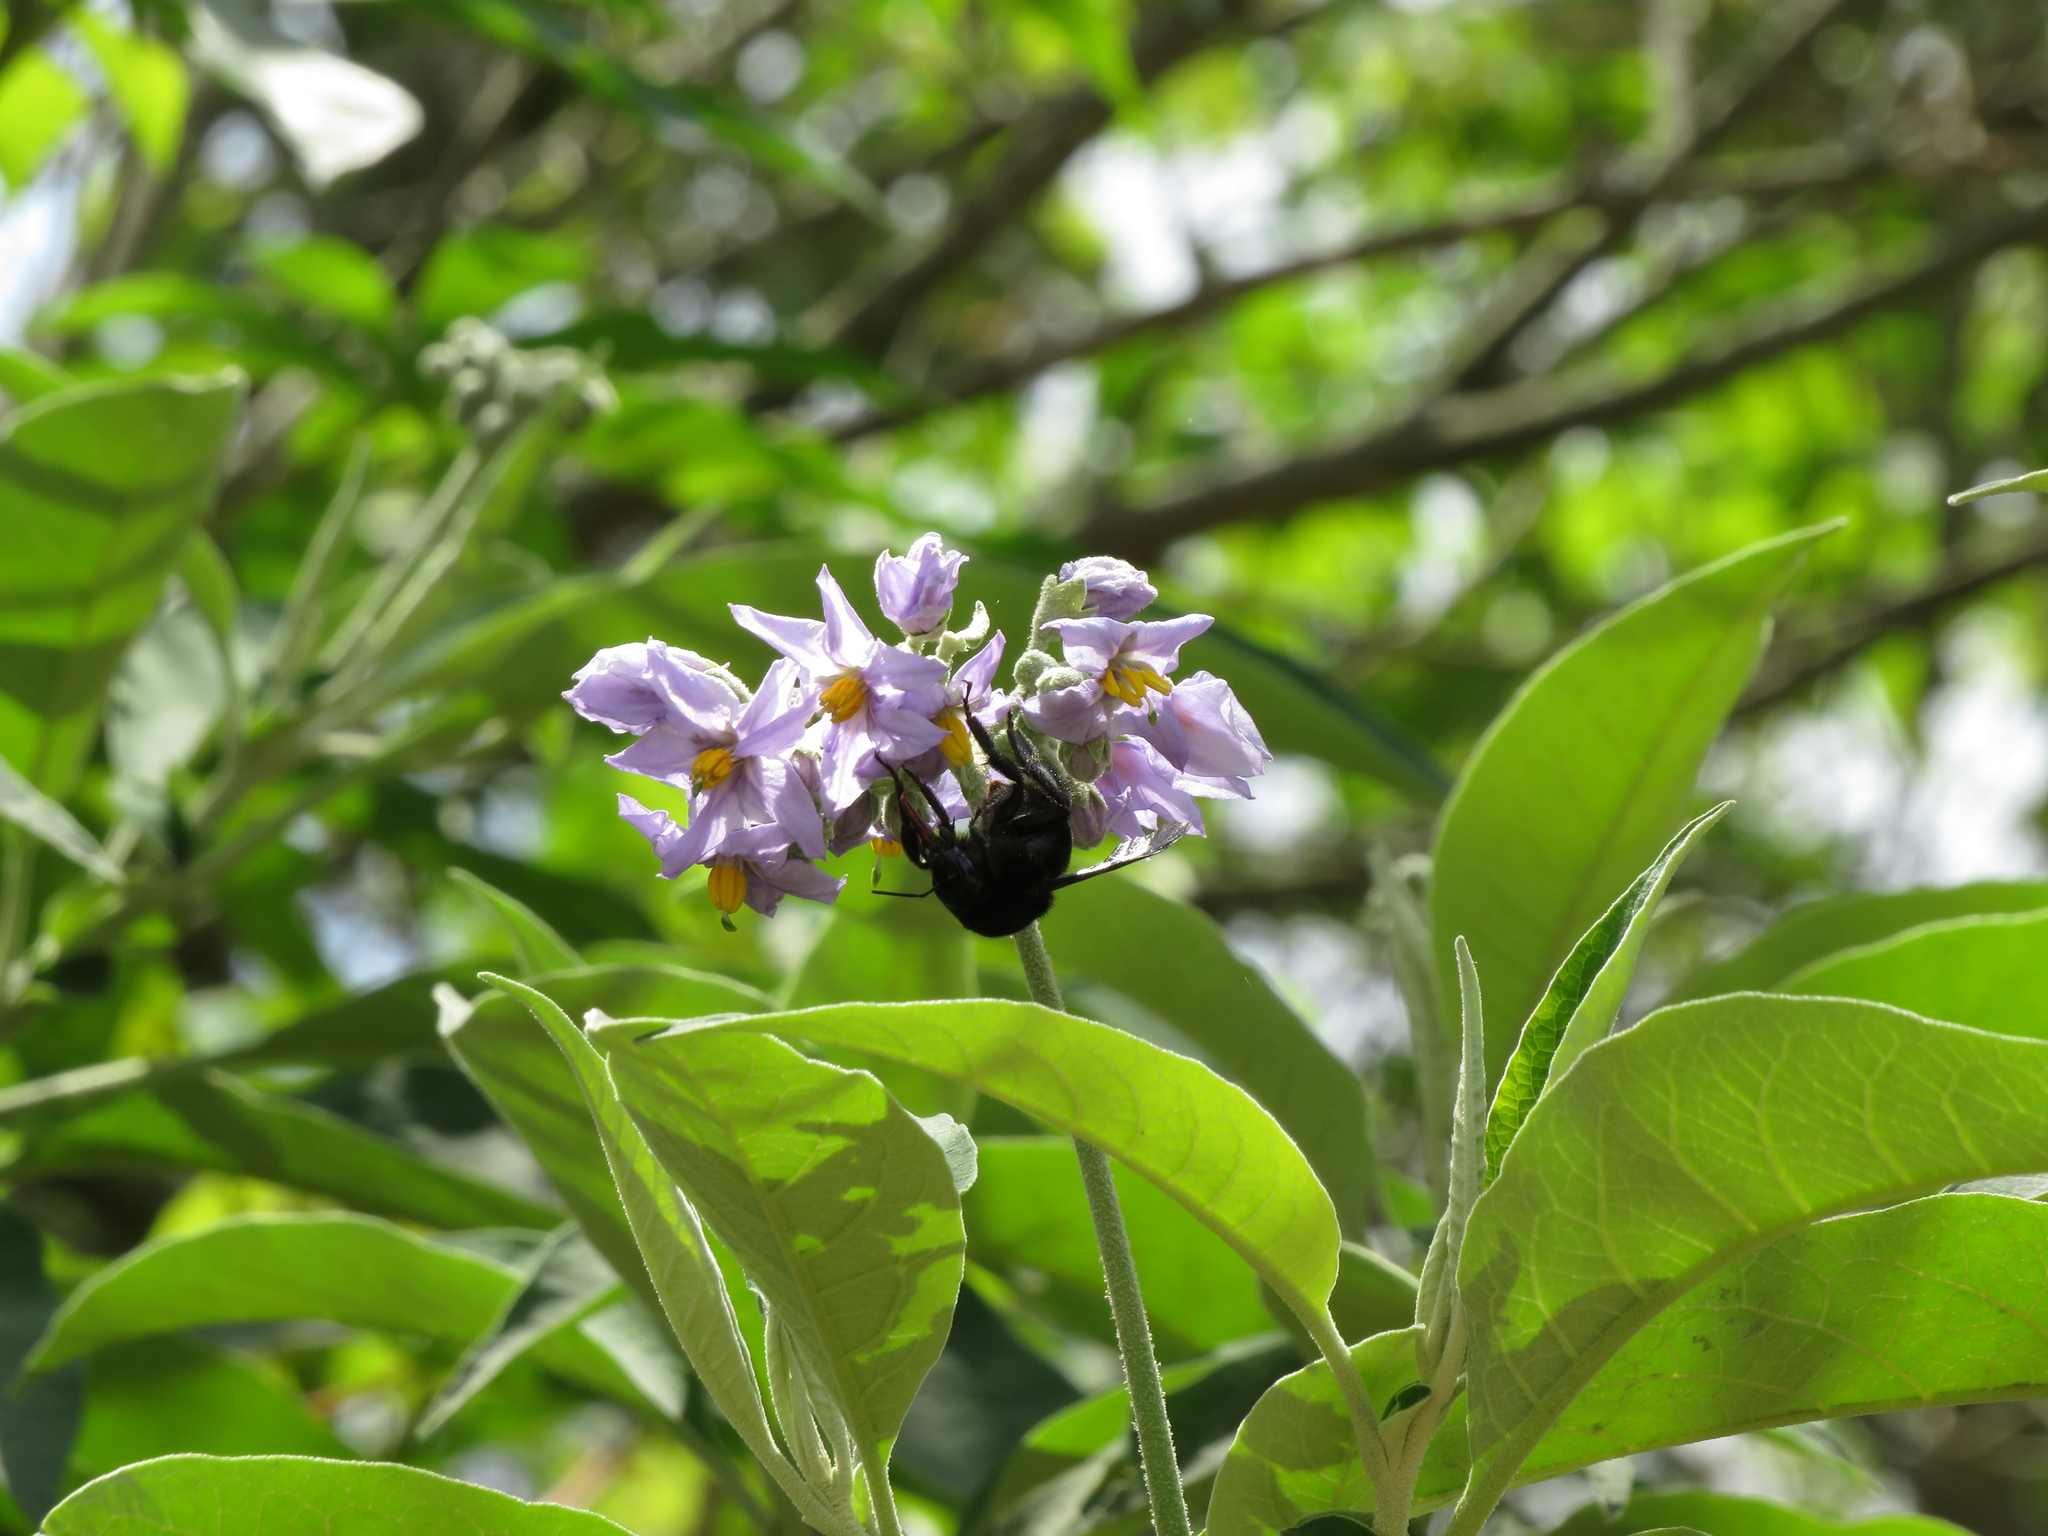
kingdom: Animalia
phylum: Arthropoda
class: Insecta
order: Hymenoptera
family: Apidae
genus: Bombus
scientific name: Bombus pauloensis
